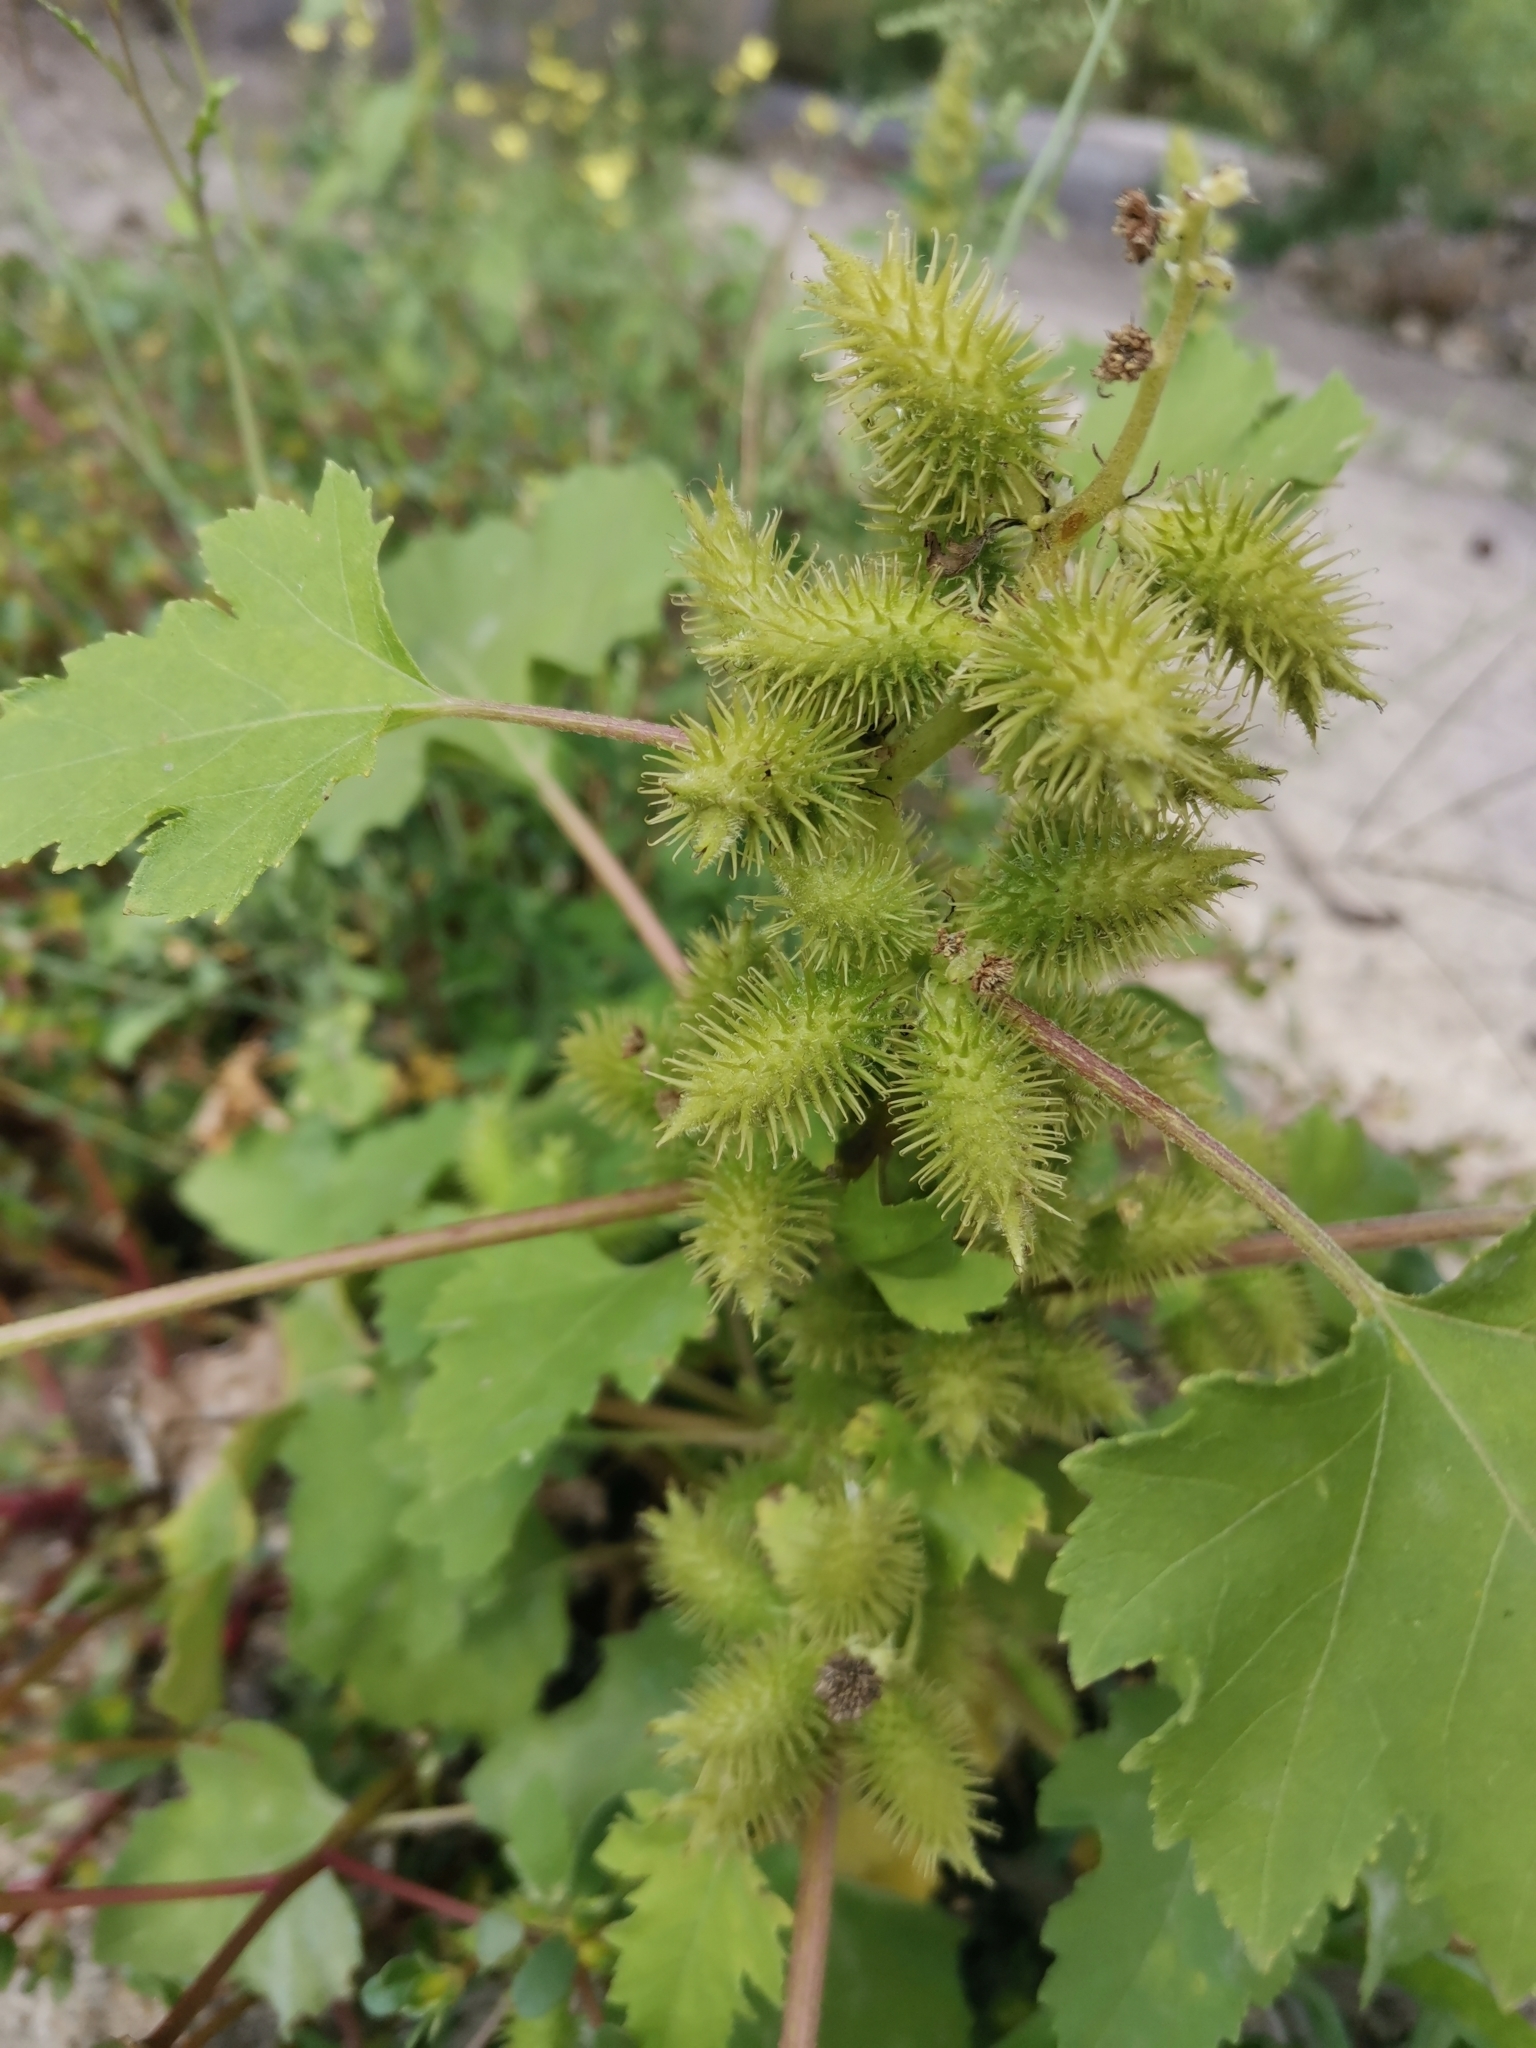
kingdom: Plantae
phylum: Tracheophyta
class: Magnoliopsida
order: Asterales
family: Asteraceae
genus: Xanthium
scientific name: Xanthium strumarium
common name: Rough cocklebur
